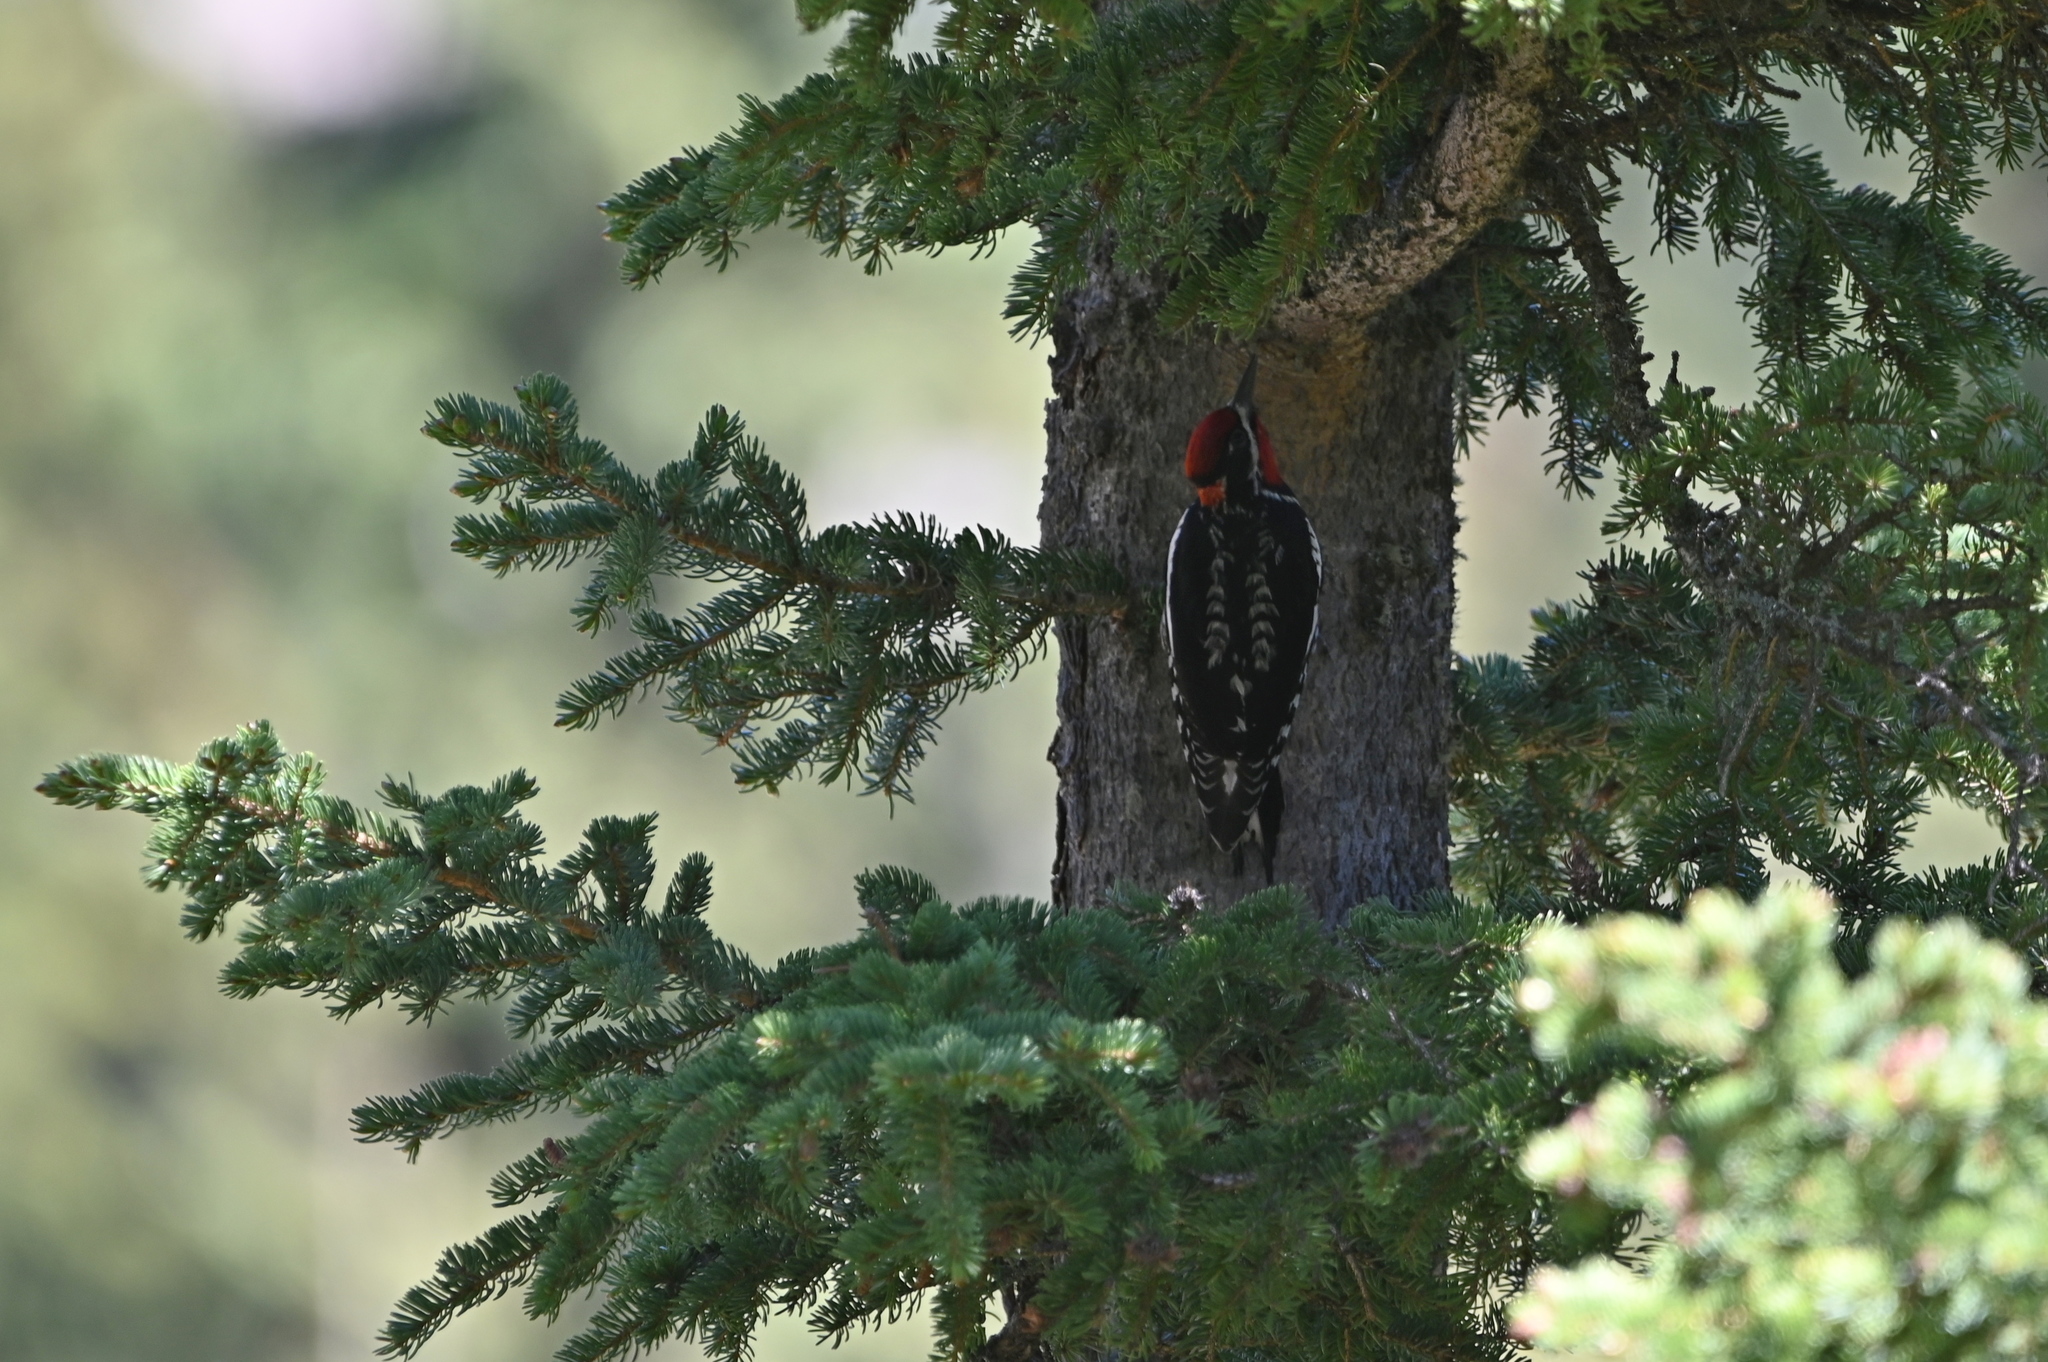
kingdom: Animalia
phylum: Chordata
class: Aves
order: Piciformes
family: Picidae
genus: Sphyrapicus
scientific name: Sphyrapicus nuchalis
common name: Red-naped sapsucker
